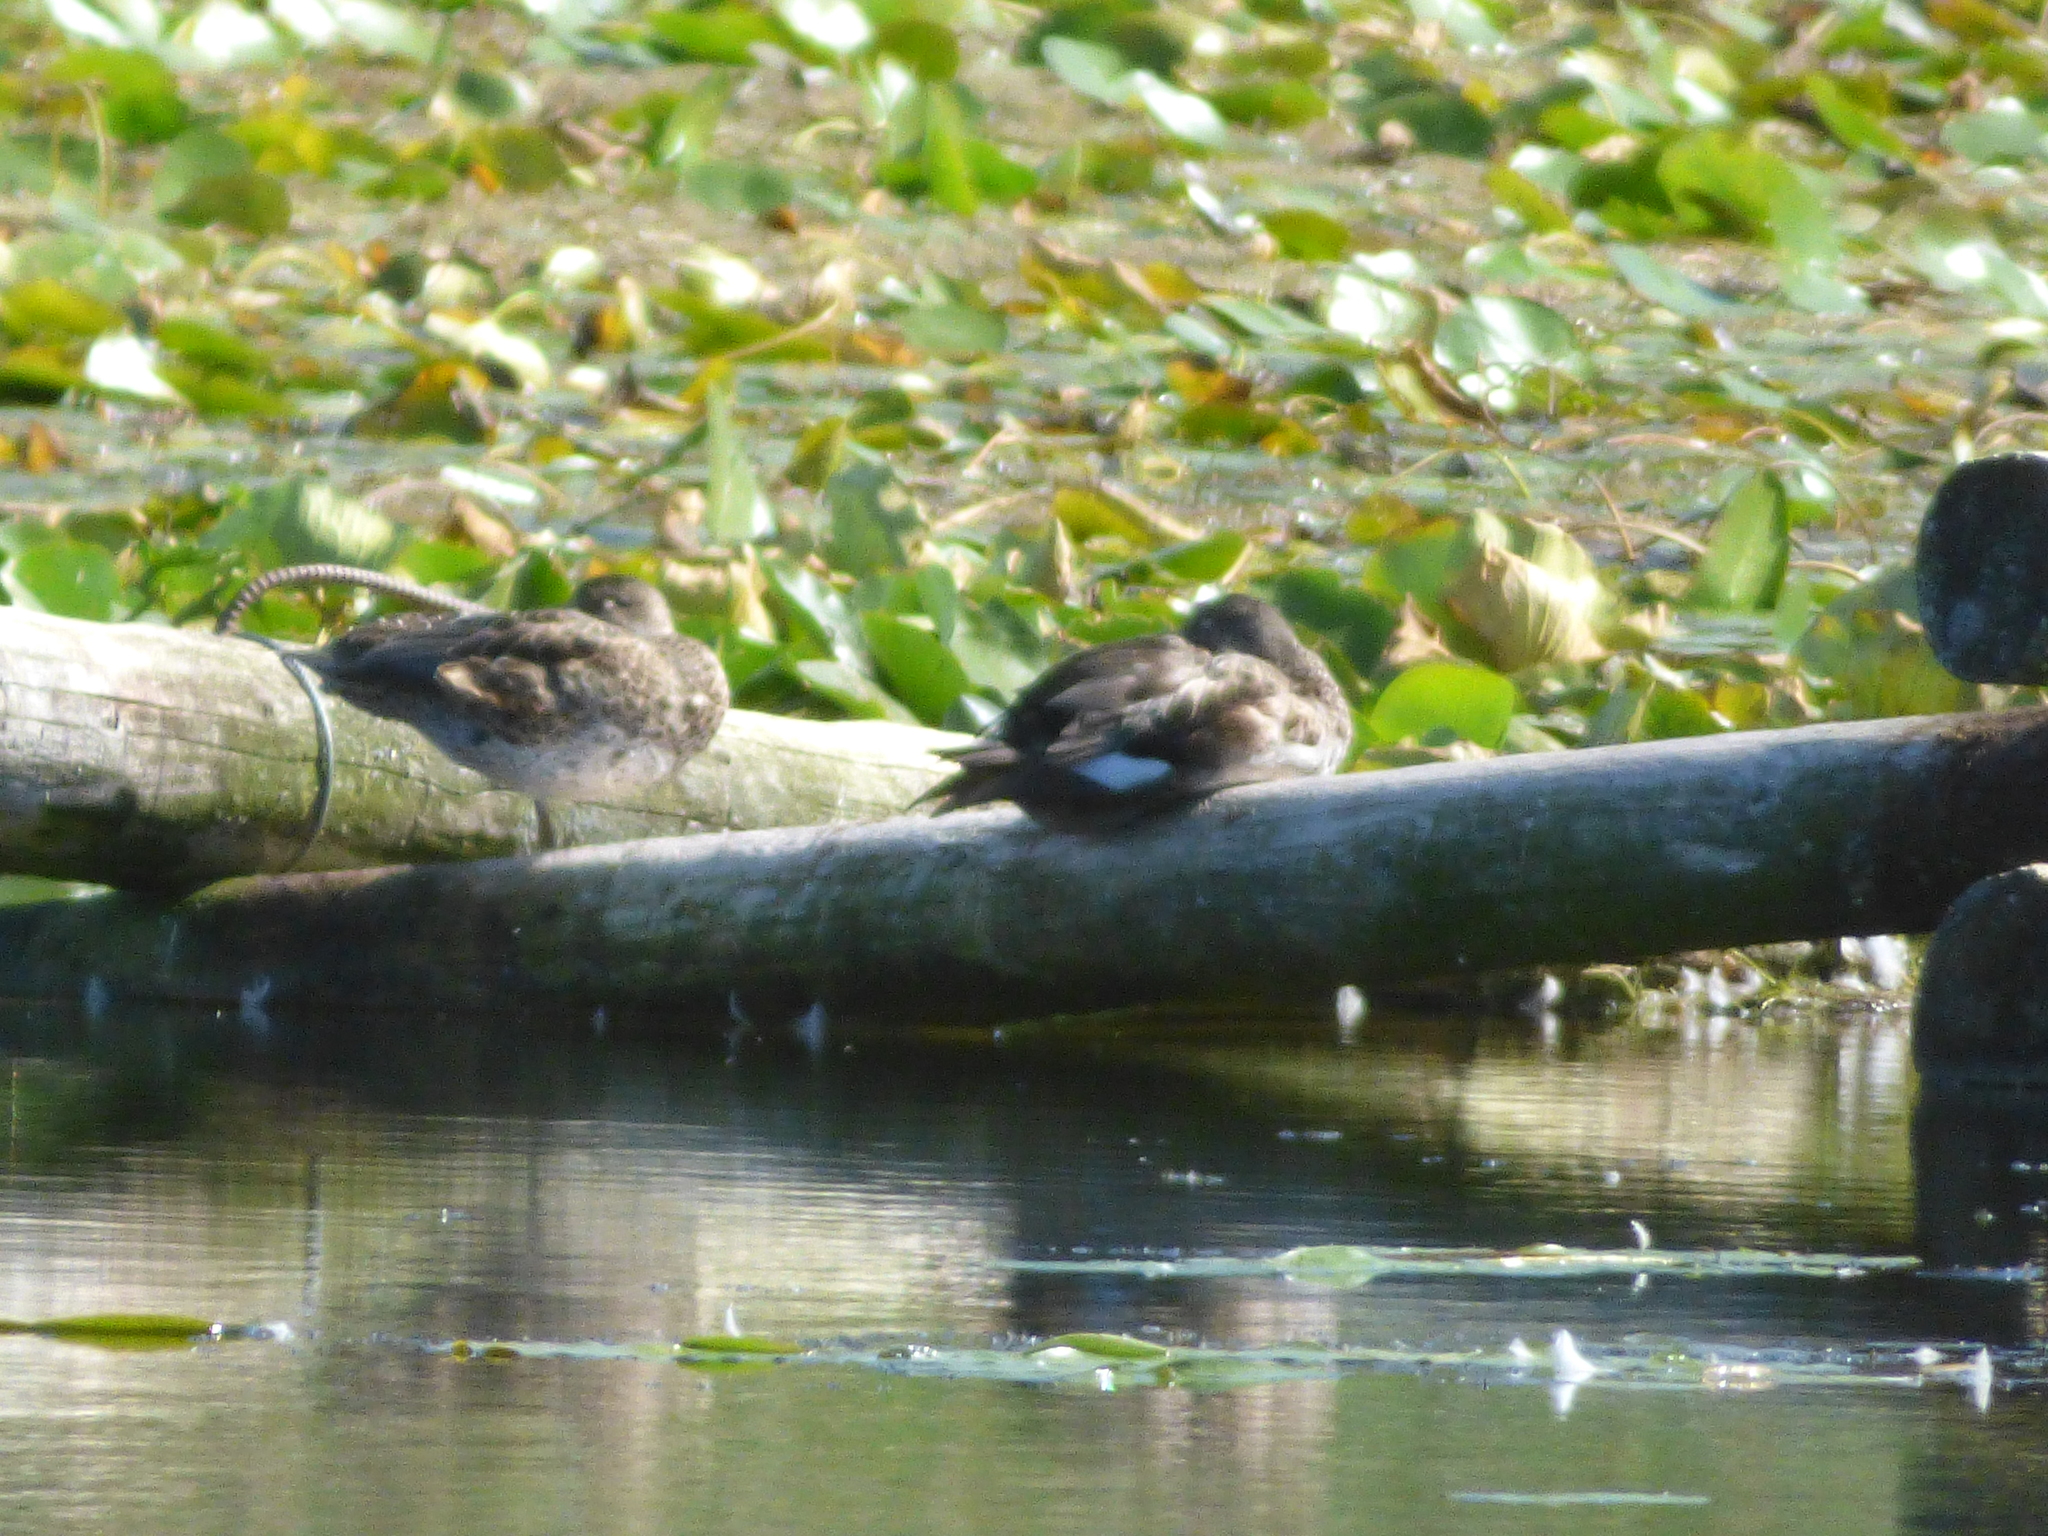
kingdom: Animalia
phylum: Chordata
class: Aves
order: Anseriformes
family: Anatidae
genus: Mareca
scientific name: Mareca strepera
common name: Gadwall
